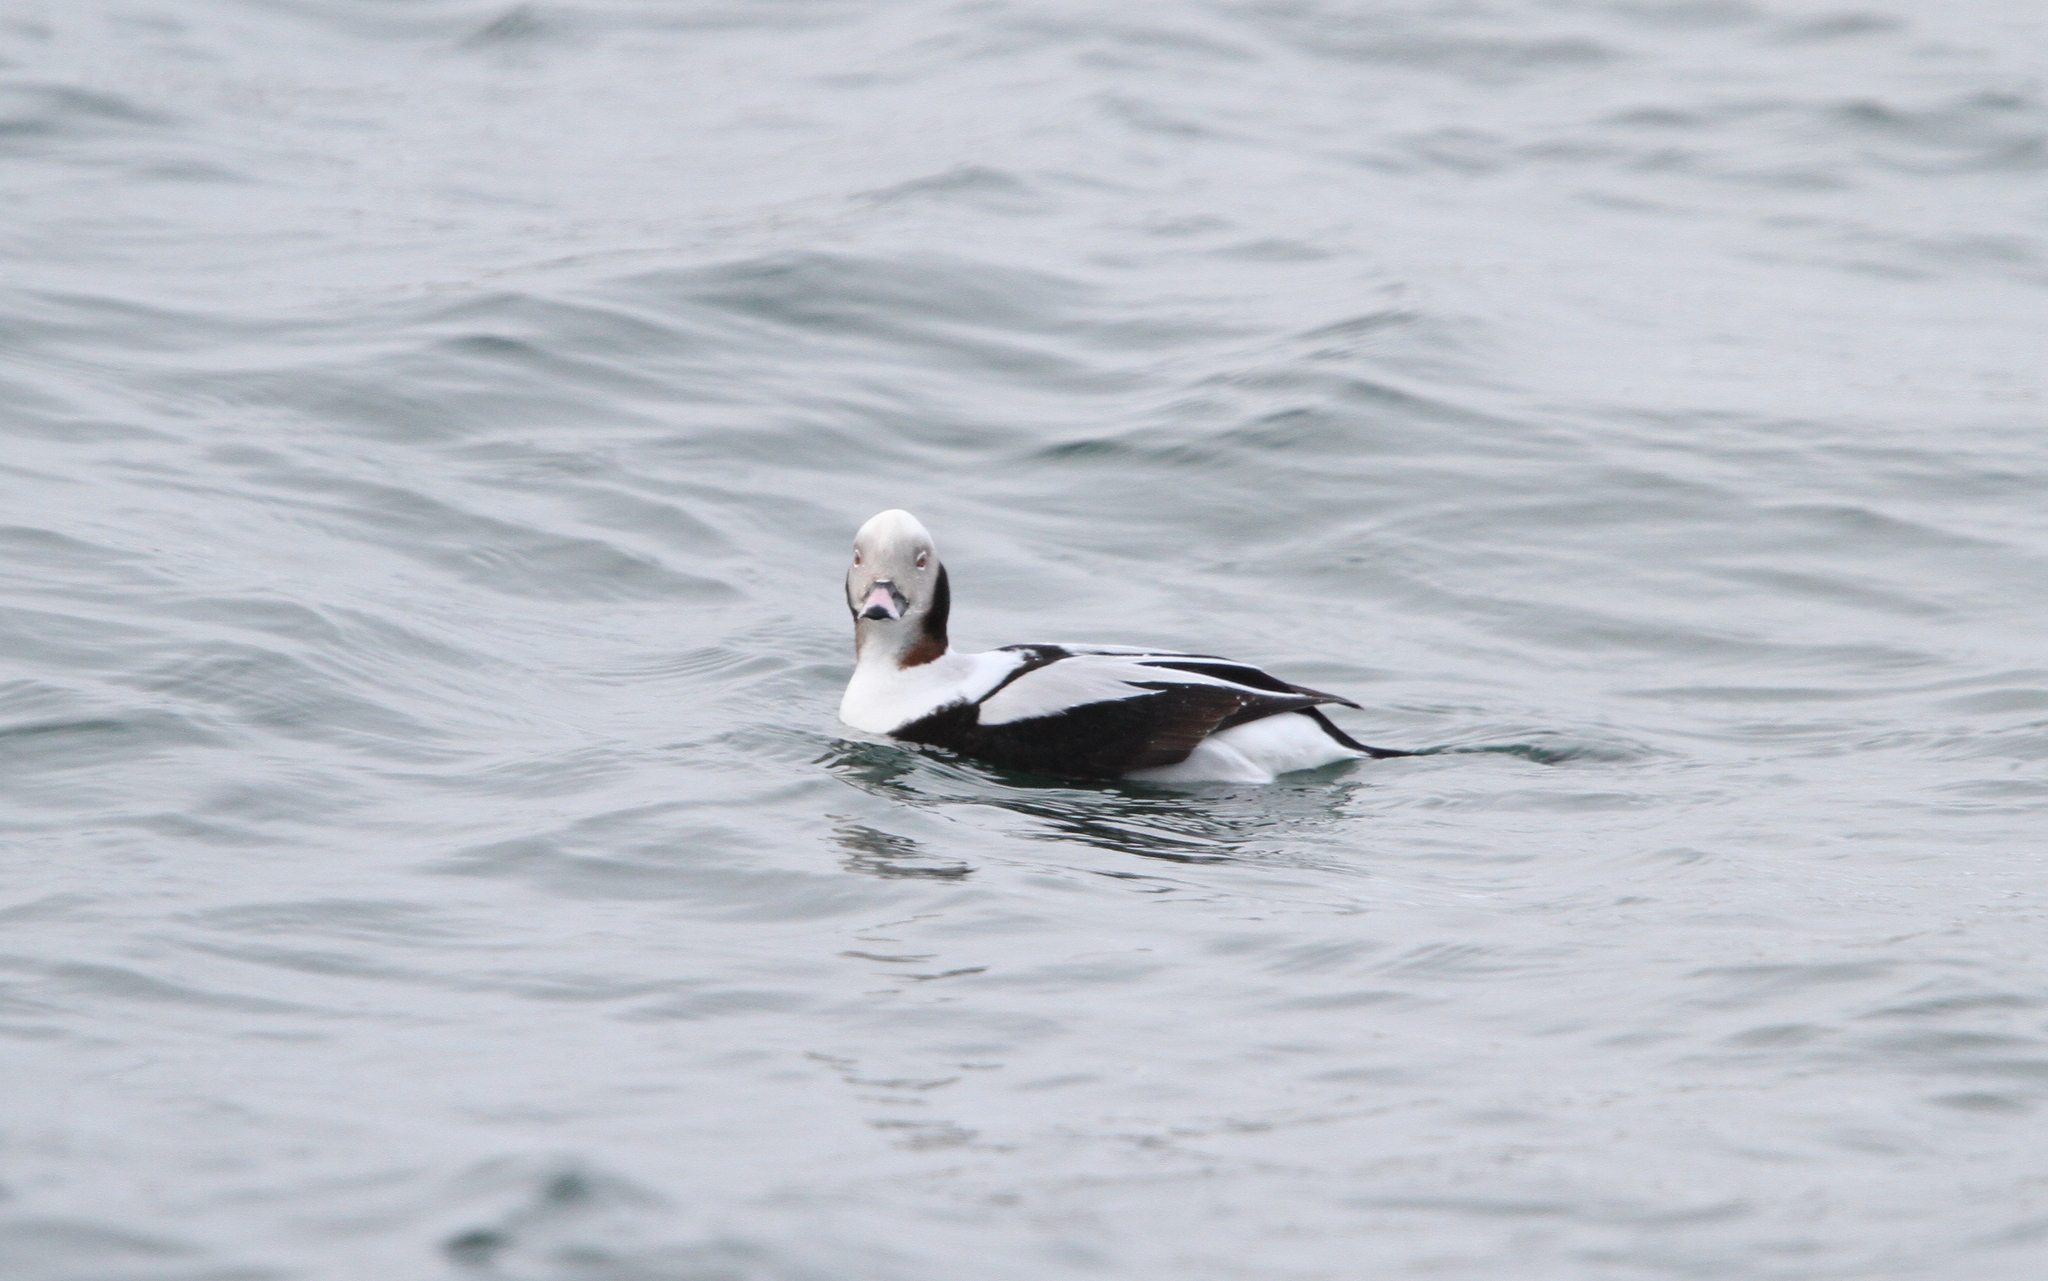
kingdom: Animalia
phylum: Chordata
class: Aves
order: Anseriformes
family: Anatidae
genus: Clangula
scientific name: Clangula hyemalis
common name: Long-tailed duck
